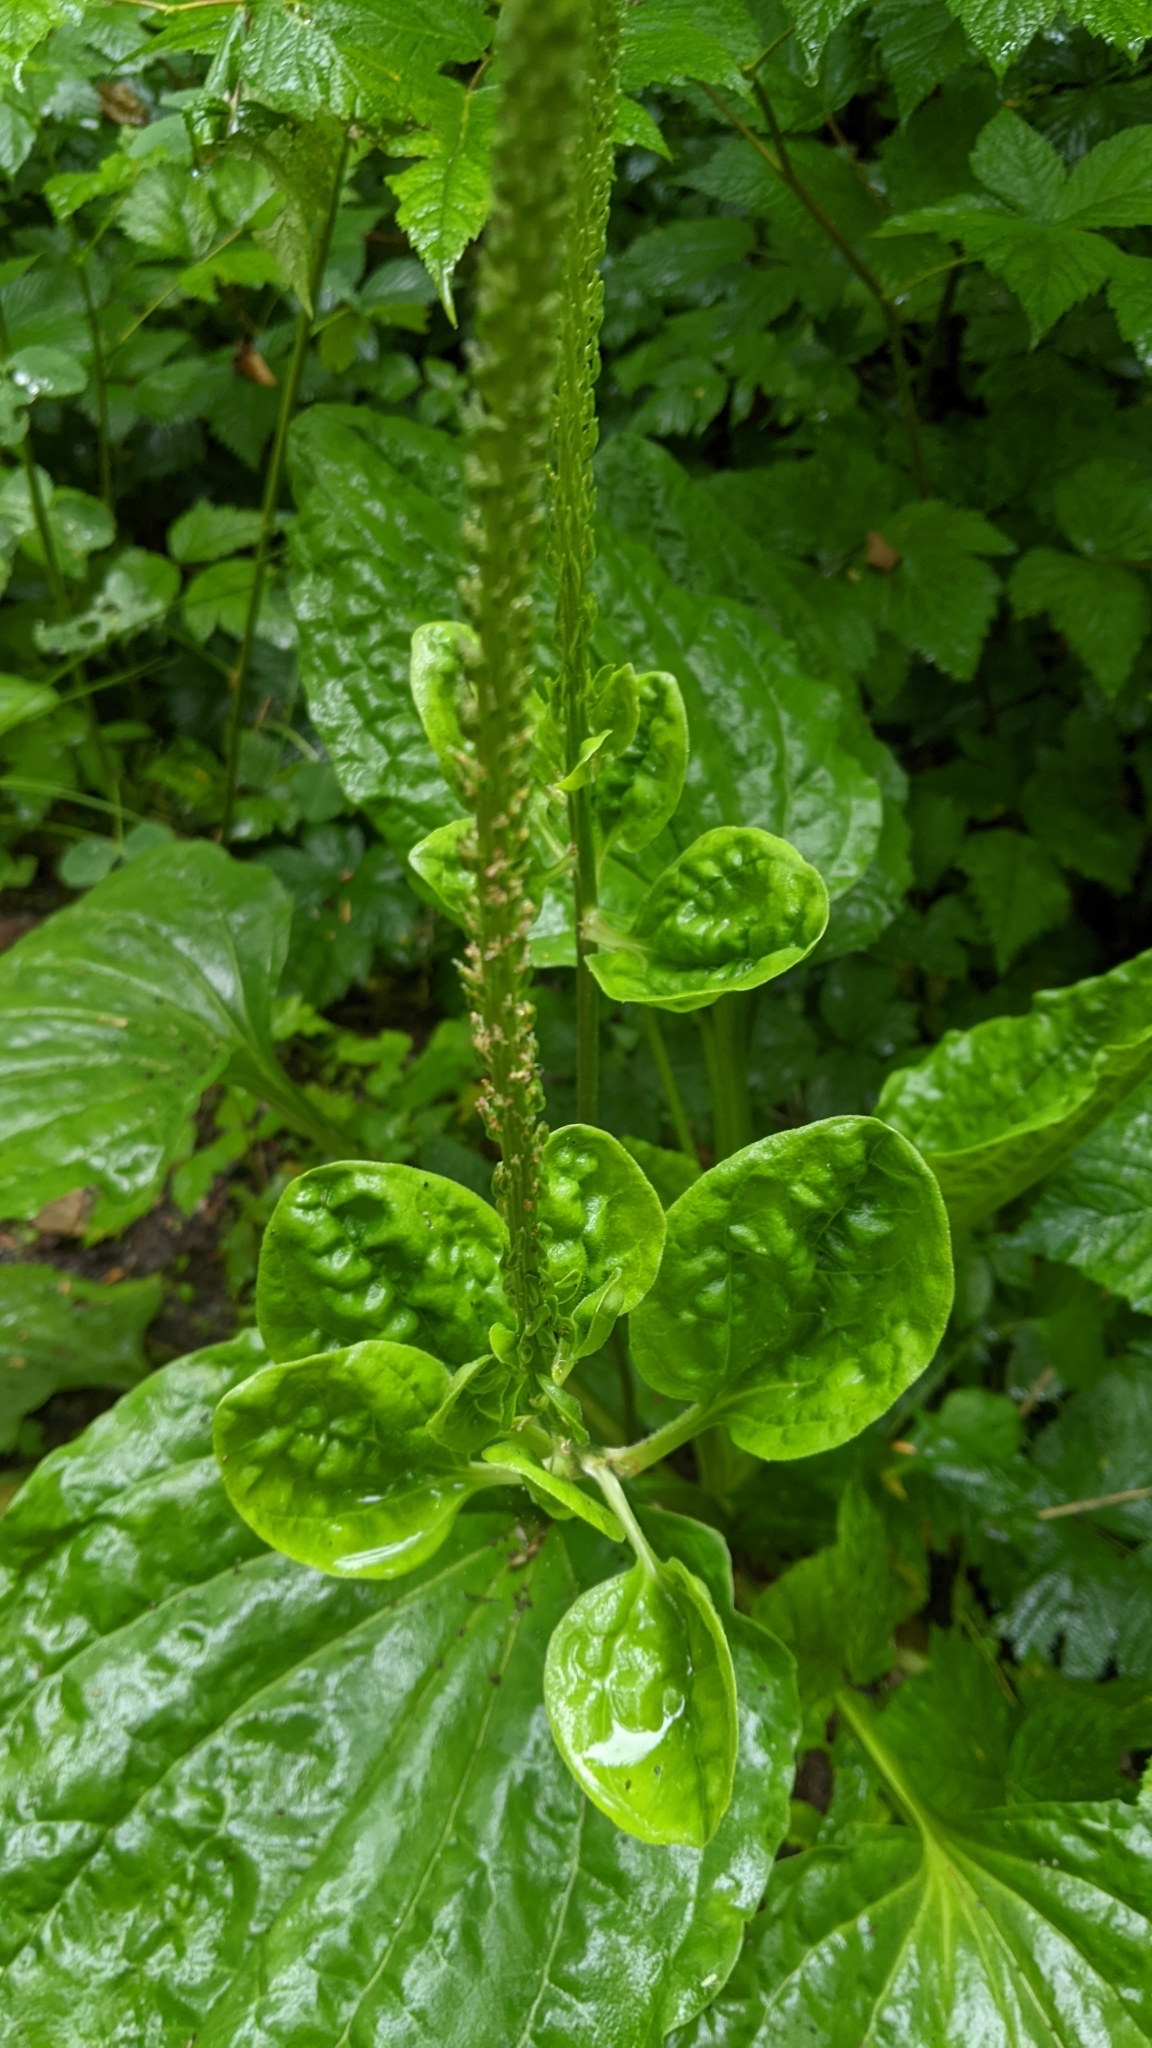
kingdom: Plantae
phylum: Tracheophyta
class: Magnoliopsida
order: Lamiales
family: Plantaginaceae
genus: Plantago
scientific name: Plantago major
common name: Common plantain
